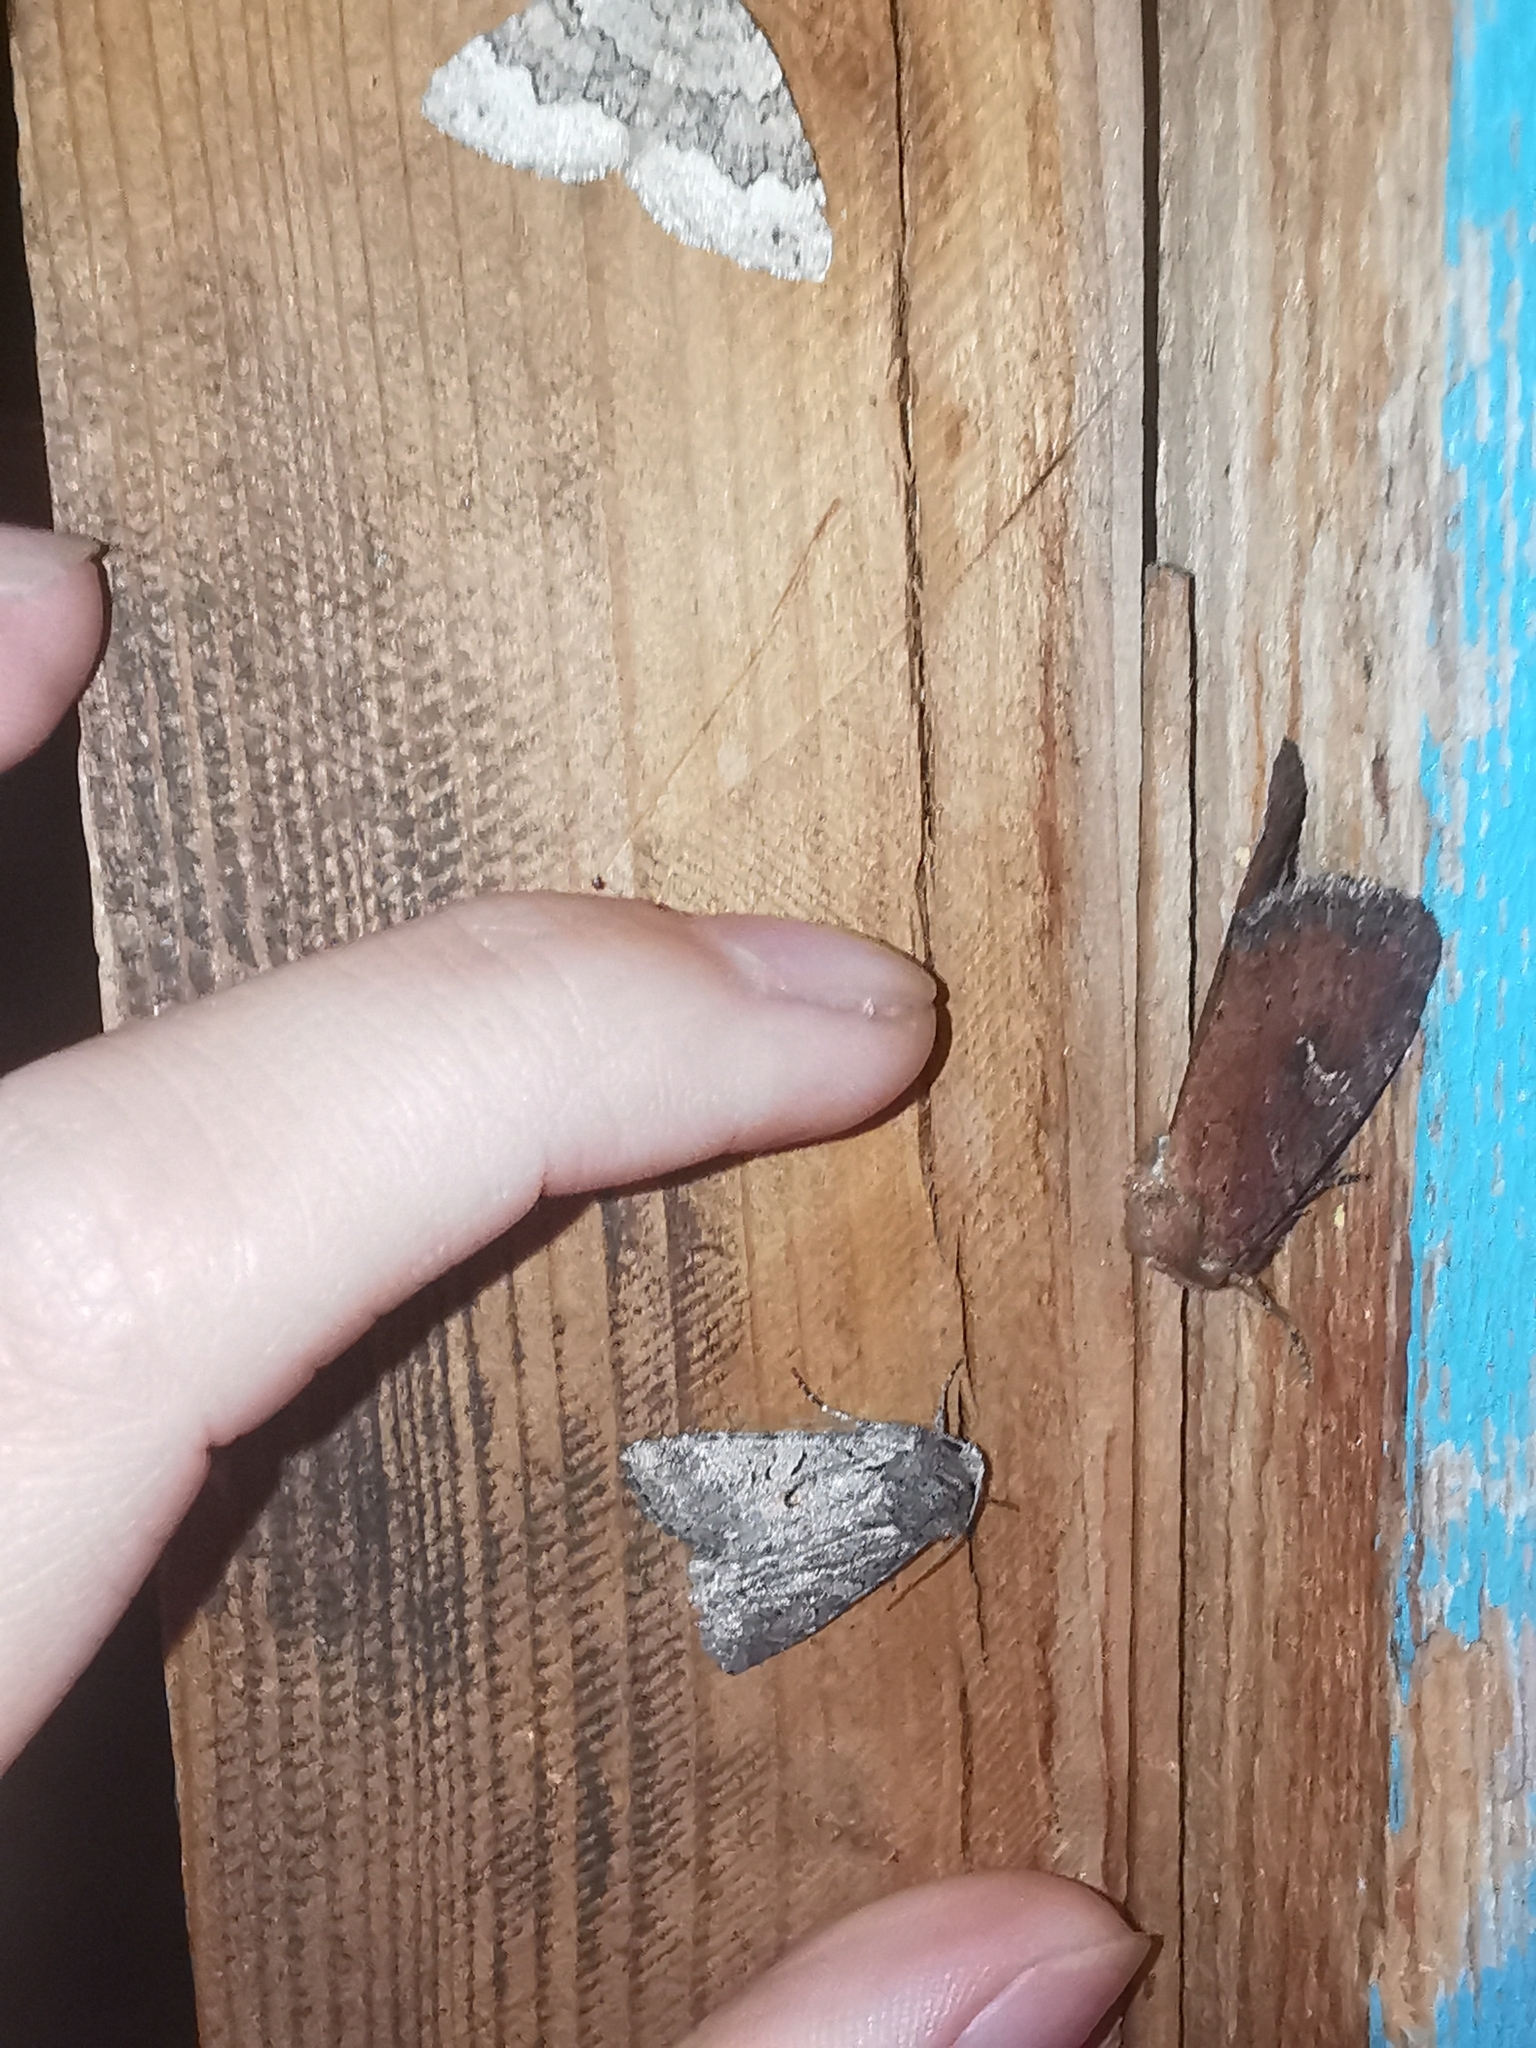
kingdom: Animalia
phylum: Arthropoda
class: Insecta
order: Lepidoptera
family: Noctuidae
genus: Lasionycta
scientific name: Lasionycta proxima
